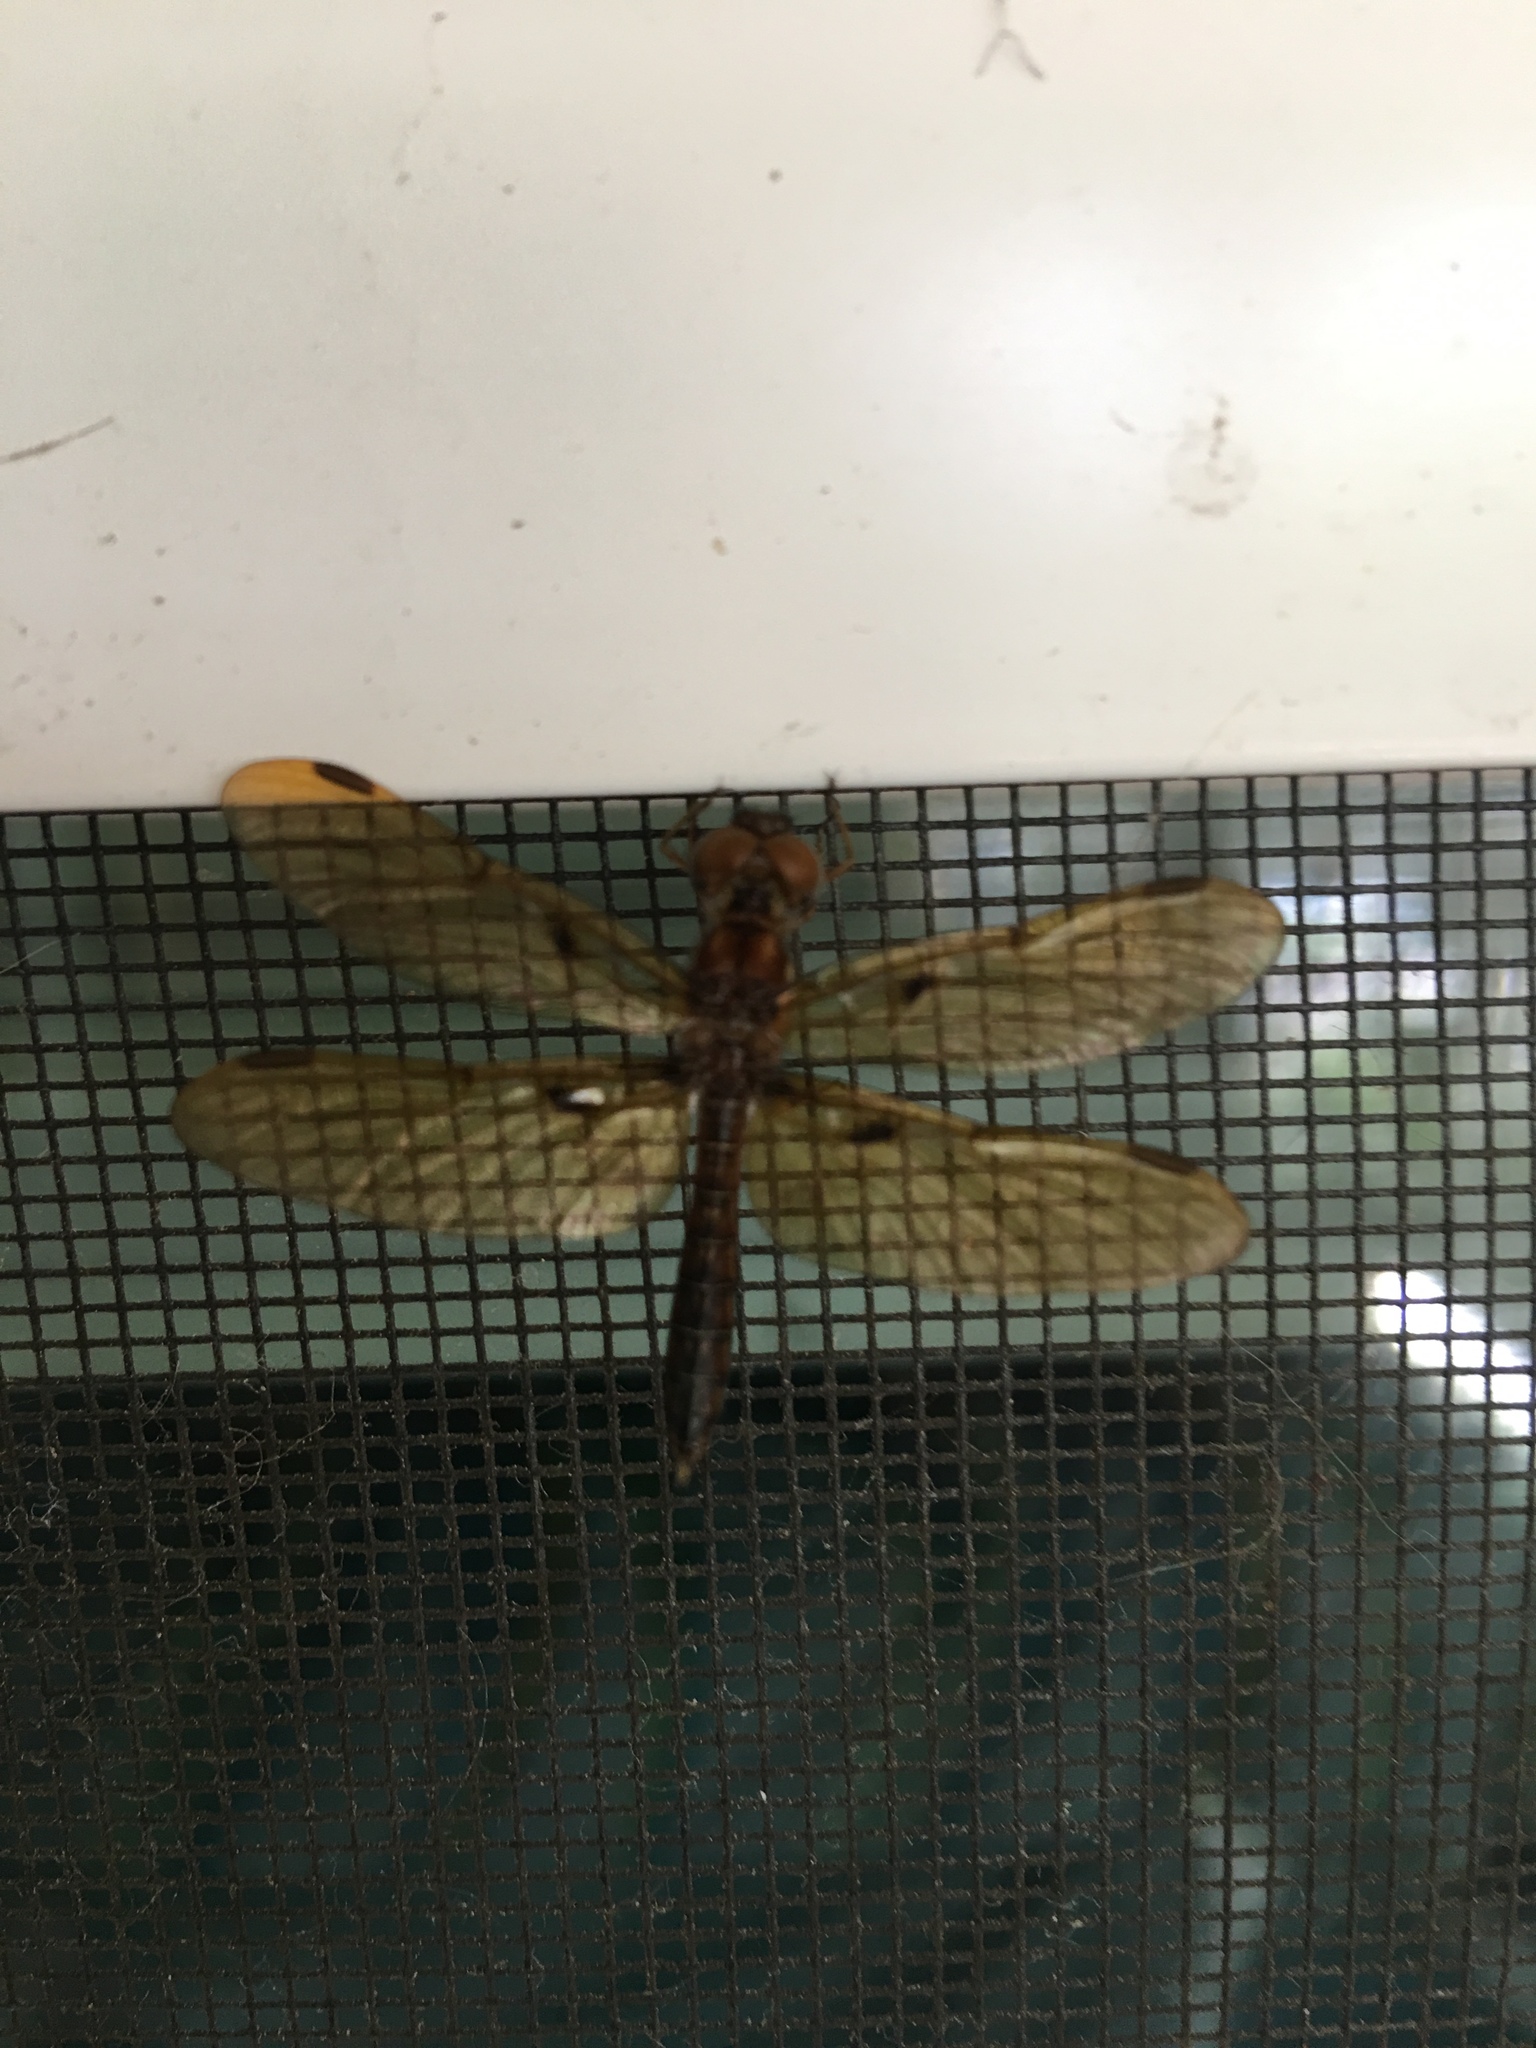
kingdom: Animalia
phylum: Arthropoda
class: Insecta
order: Odonata
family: Libellulidae
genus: Perithemis
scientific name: Perithemis tenera
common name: Eastern amberwing
